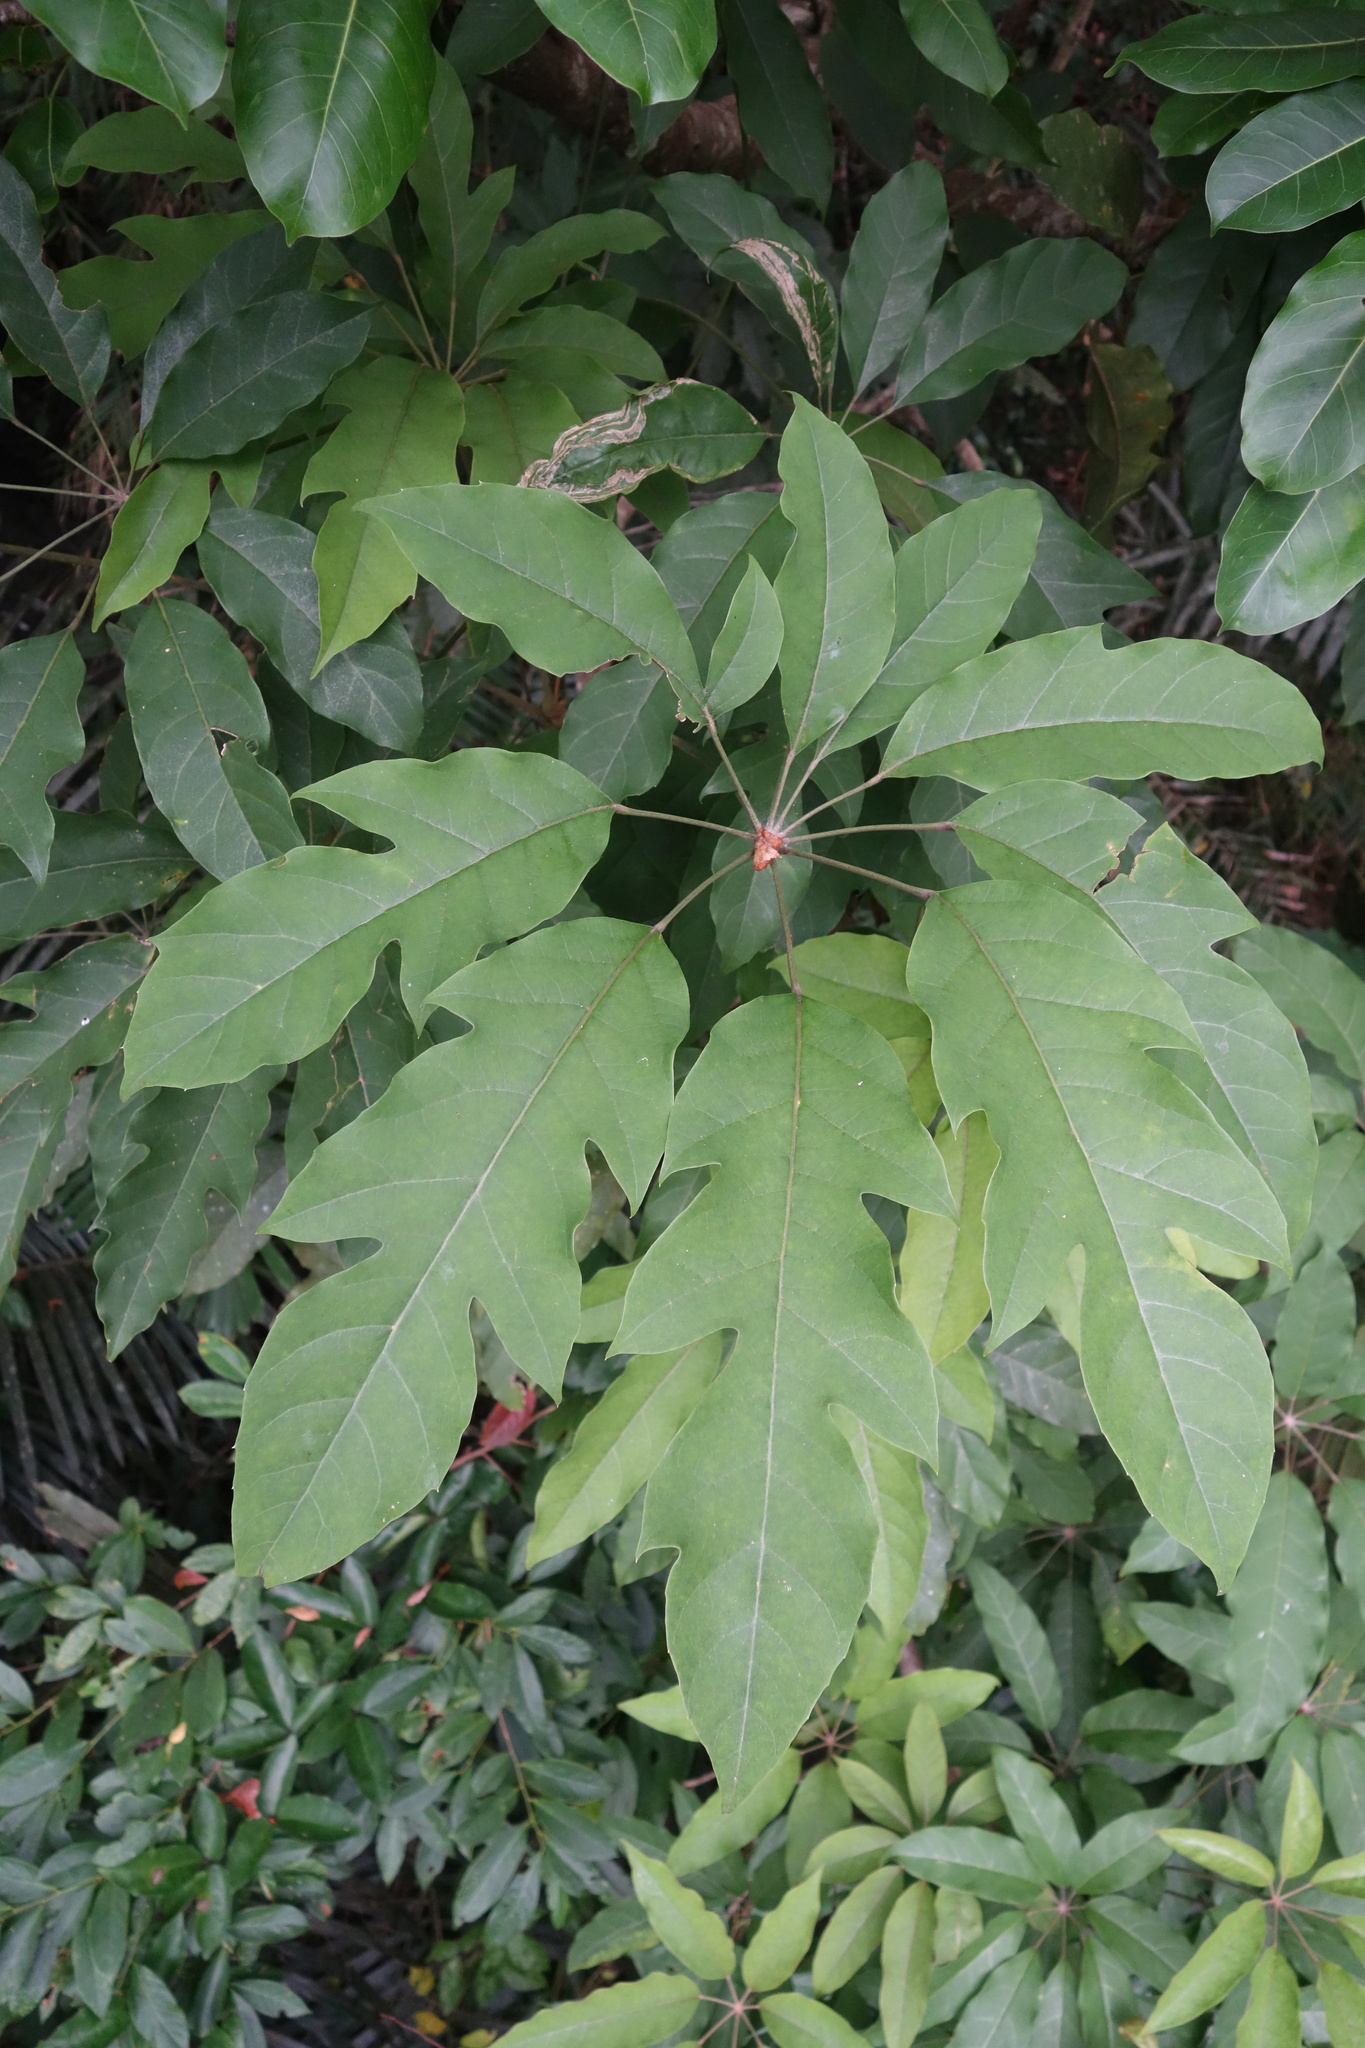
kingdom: Plantae
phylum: Tracheophyta
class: Magnoliopsida
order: Apiales
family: Araliaceae
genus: Heptapleurum
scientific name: Heptapleurum heptaphyllum
